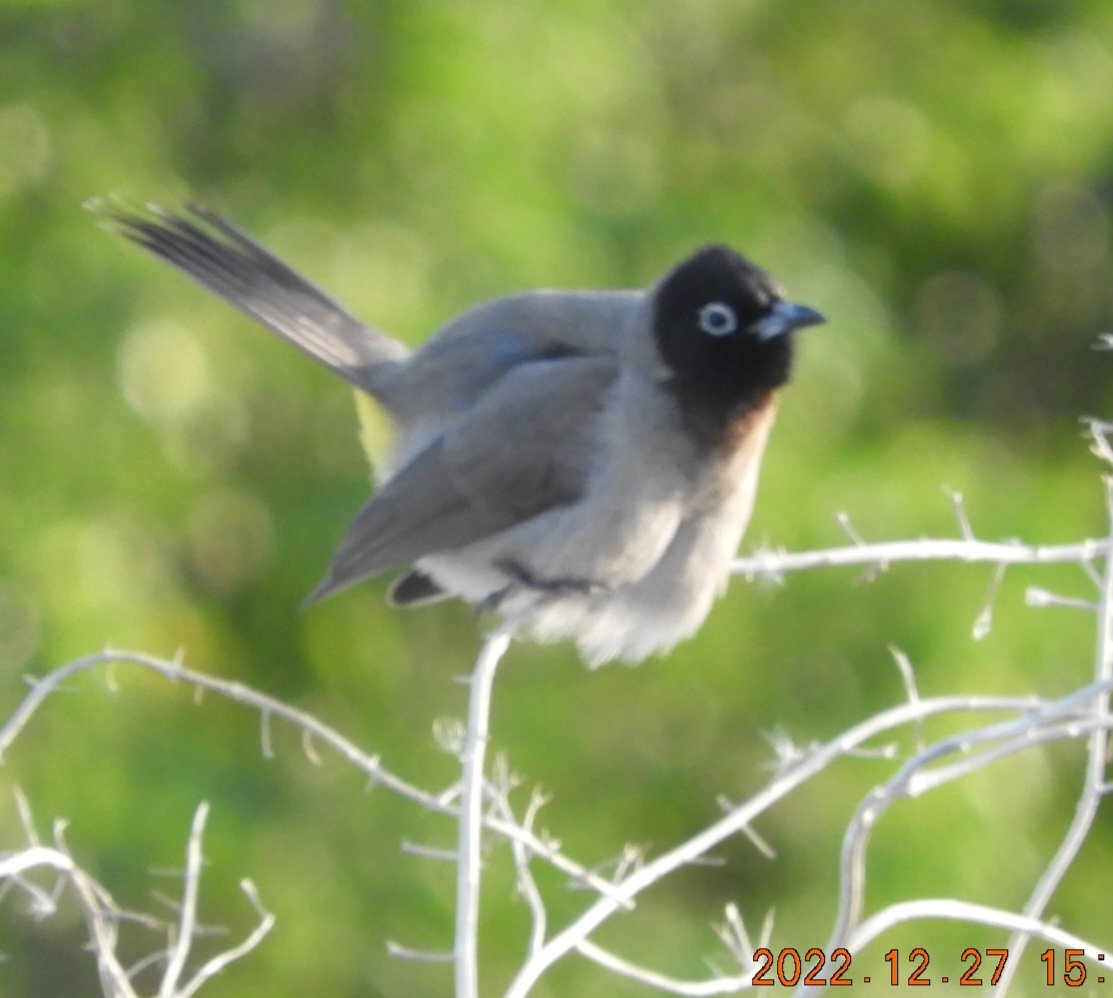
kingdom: Animalia
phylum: Chordata
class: Aves
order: Passeriformes
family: Pycnonotidae
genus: Pycnonotus
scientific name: Pycnonotus xanthopygos
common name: White-spectacled bulbul
